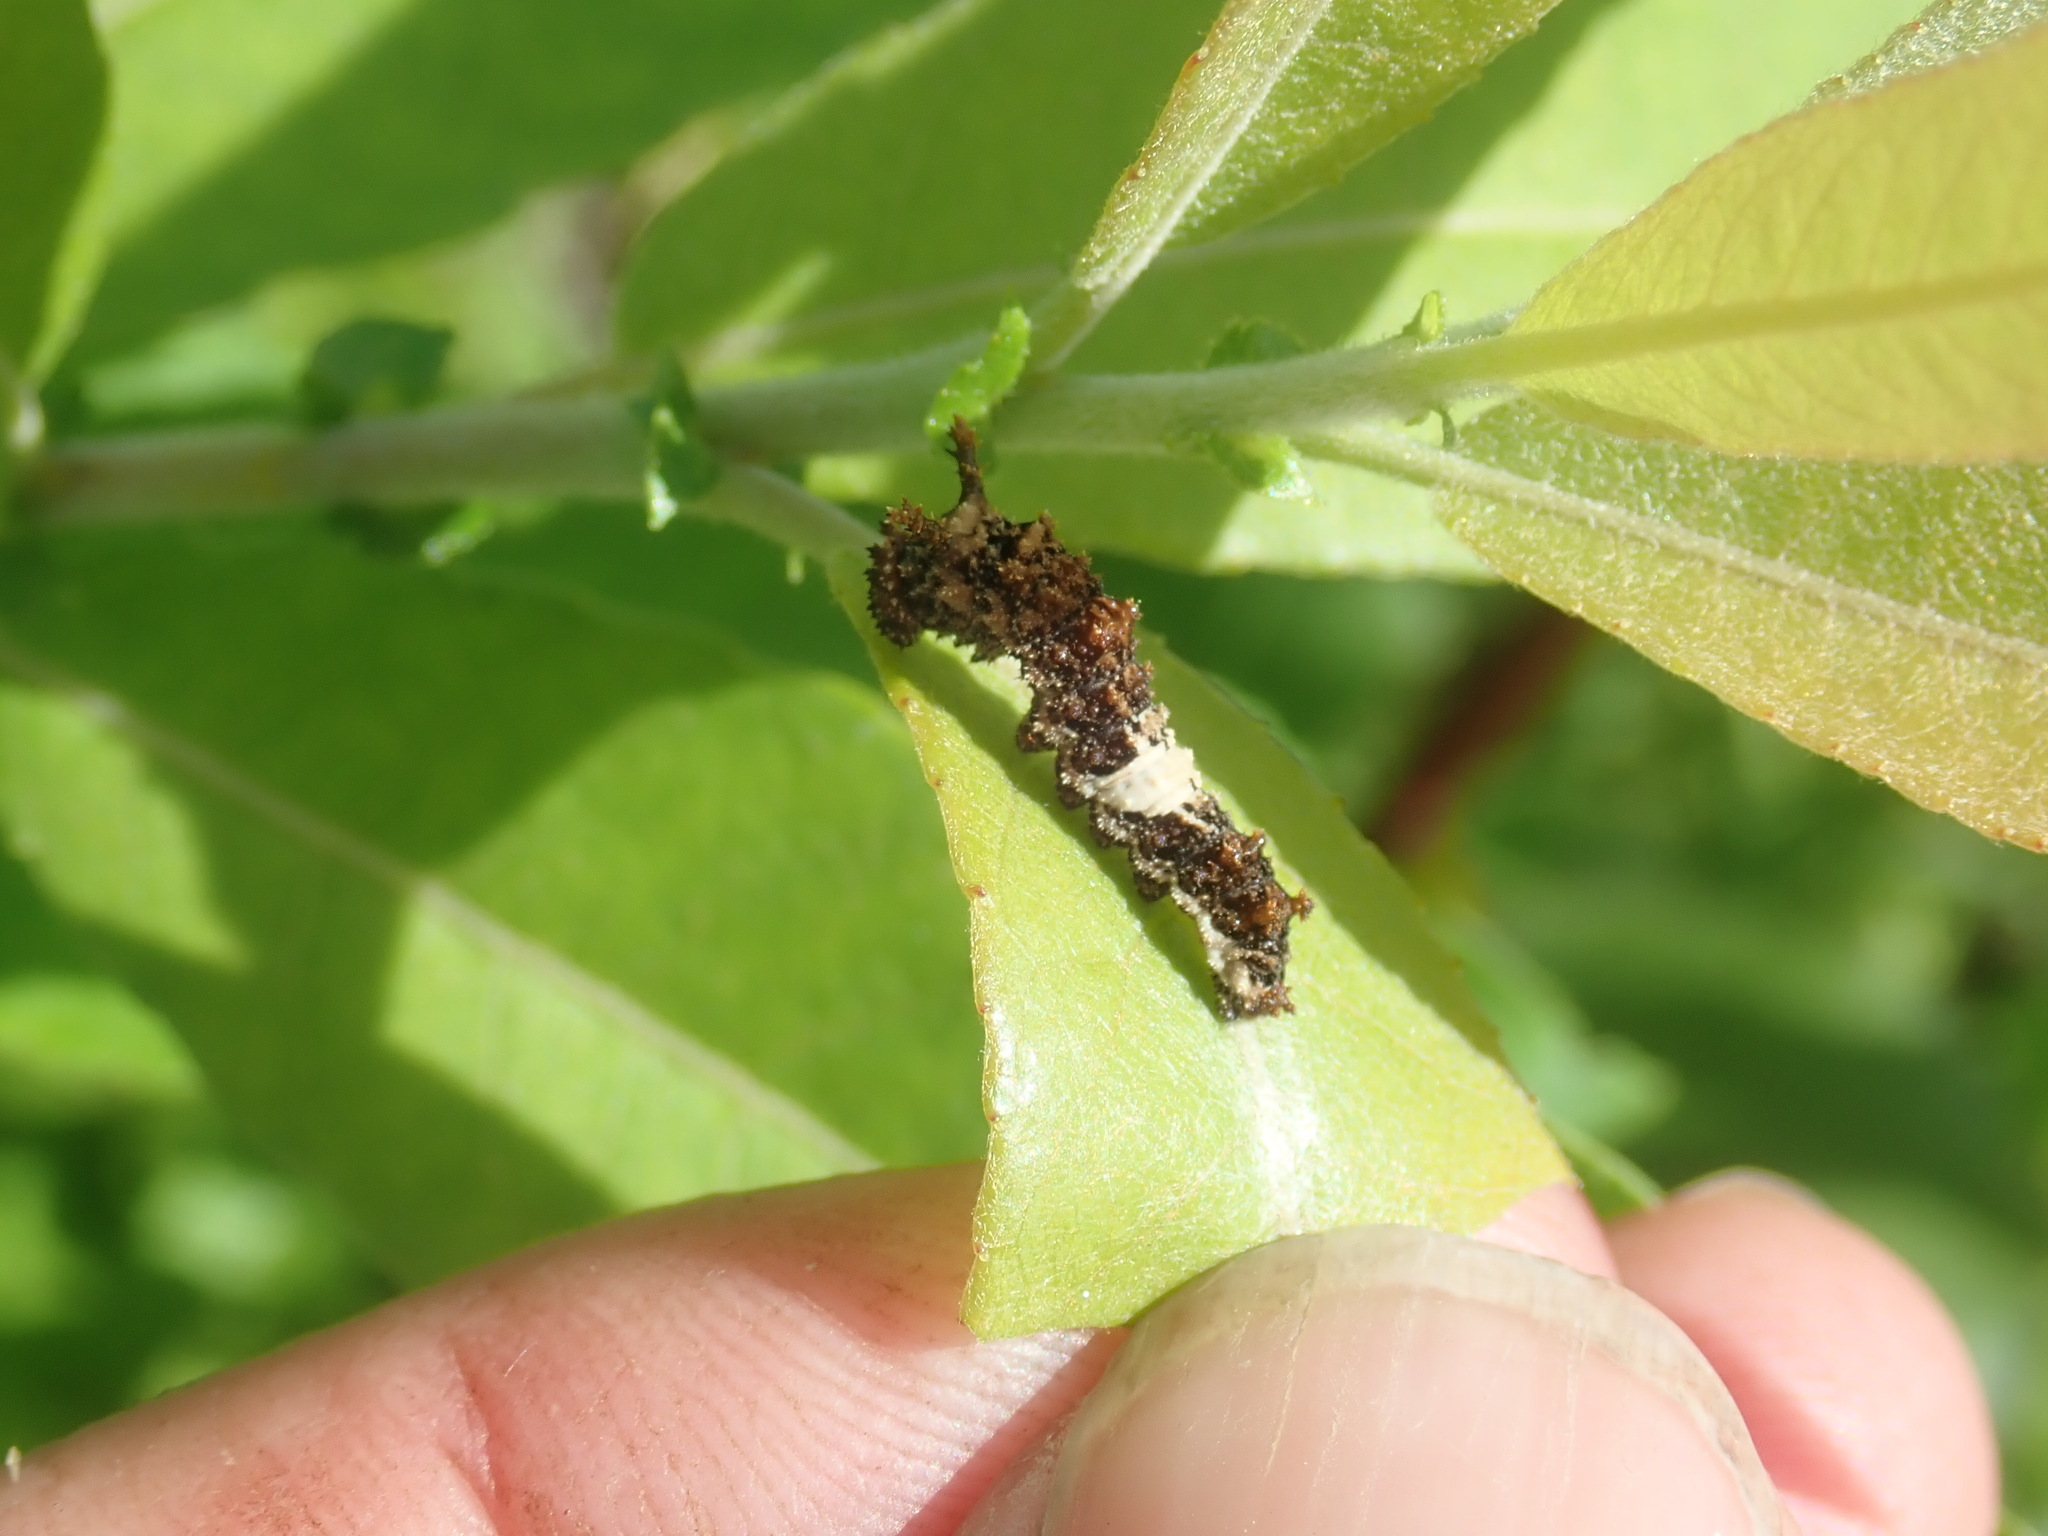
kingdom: Animalia
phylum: Arthropoda
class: Insecta
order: Lepidoptera
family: Nymphalidae
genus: Limenitis
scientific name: Limenitis archippus
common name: Viceroy
